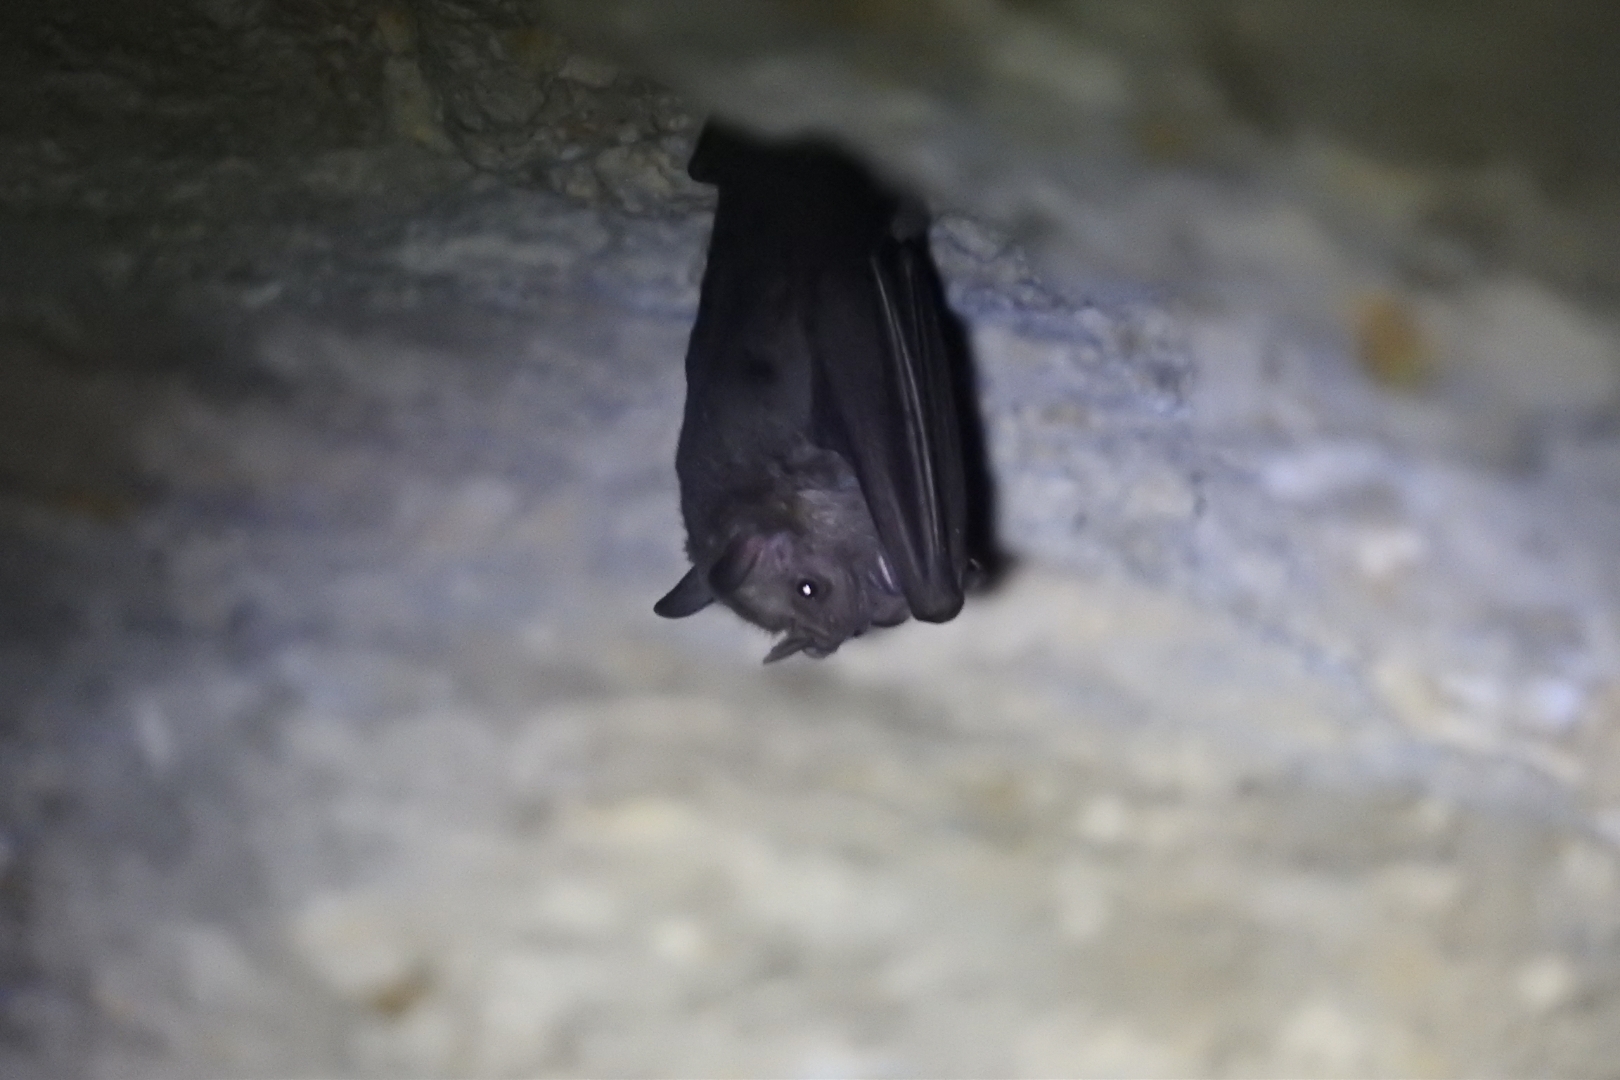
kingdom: Animalia
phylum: Chordata
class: Mammalia
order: Chiroptera
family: Phyllostomidae
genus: Artibeus
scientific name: Artibeus jamaicensis
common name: Jamaican fruit-eating bat
